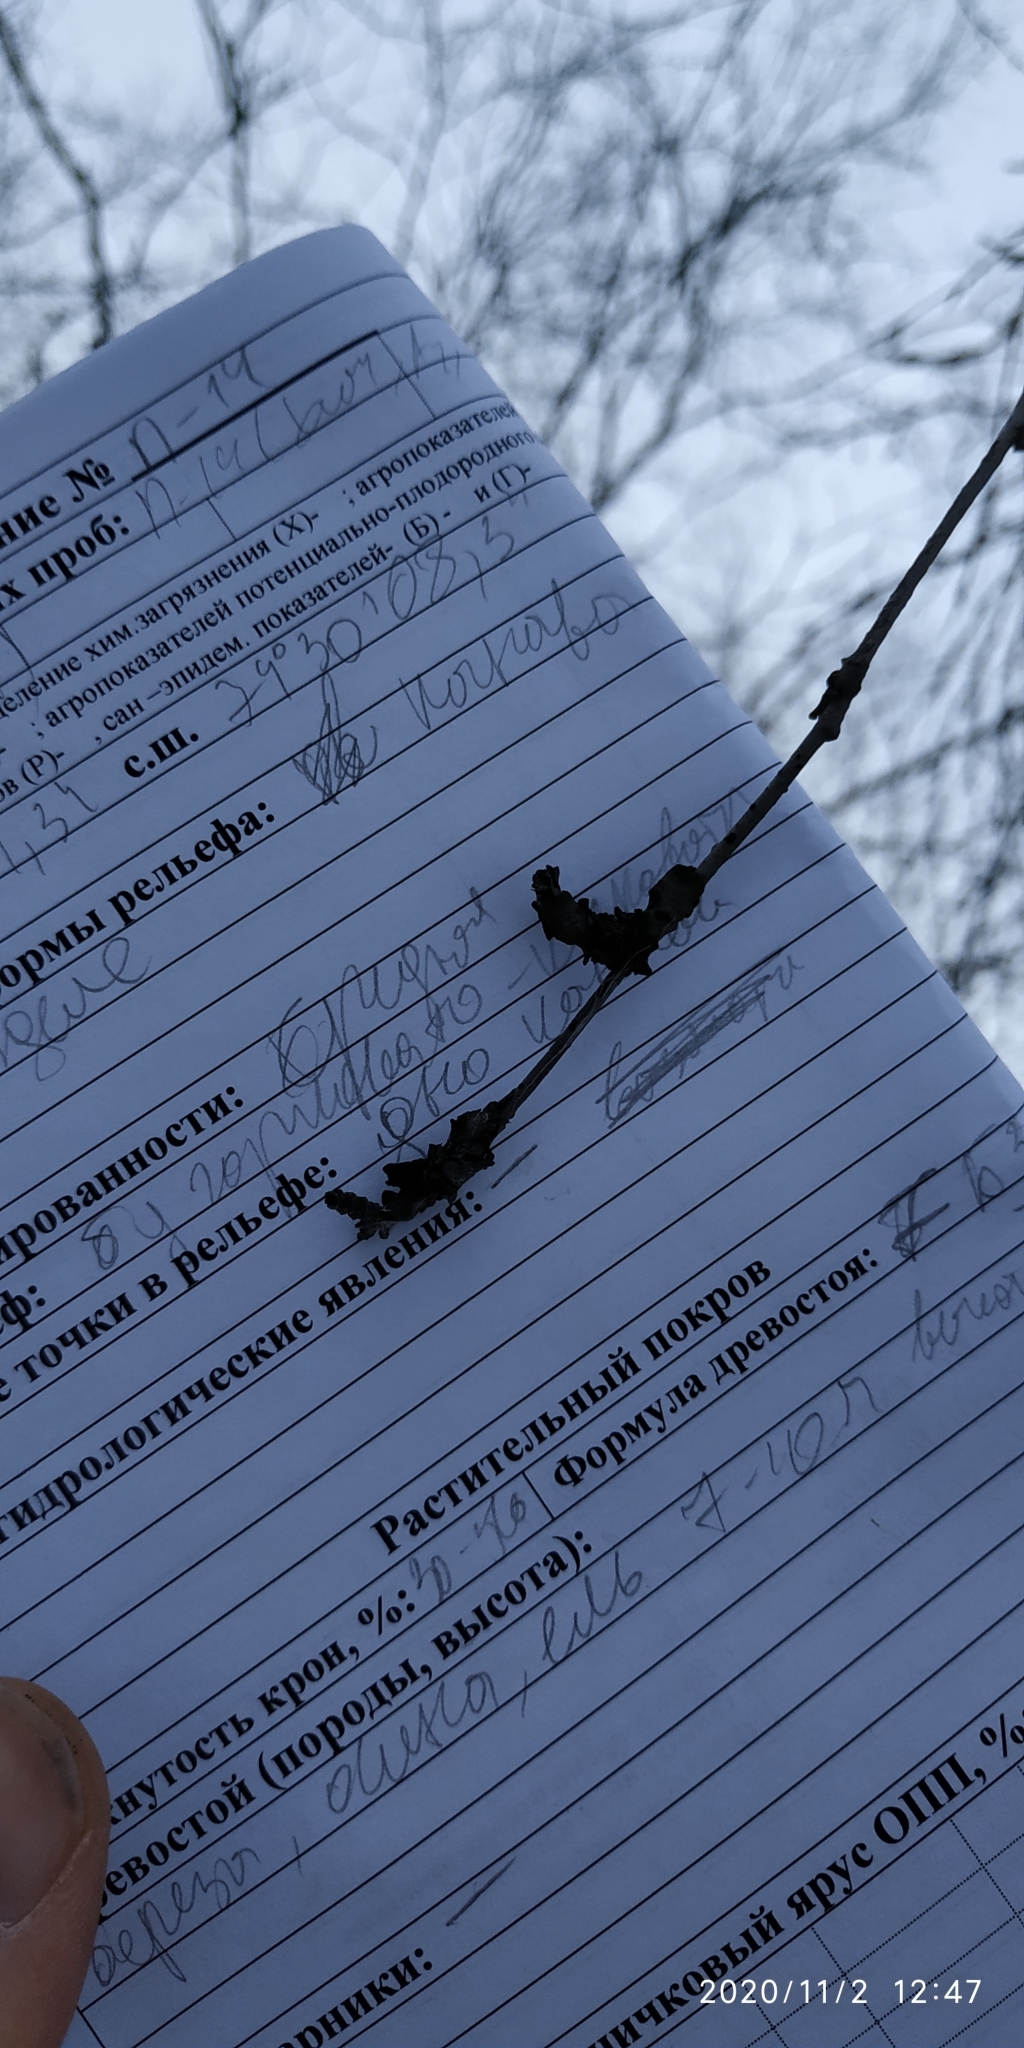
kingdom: Plantae
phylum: Tracheophyta
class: Magnoliopsida
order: Fagales
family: Betulaceae
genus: Betula
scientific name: Betula pubescens
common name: Downy birch
